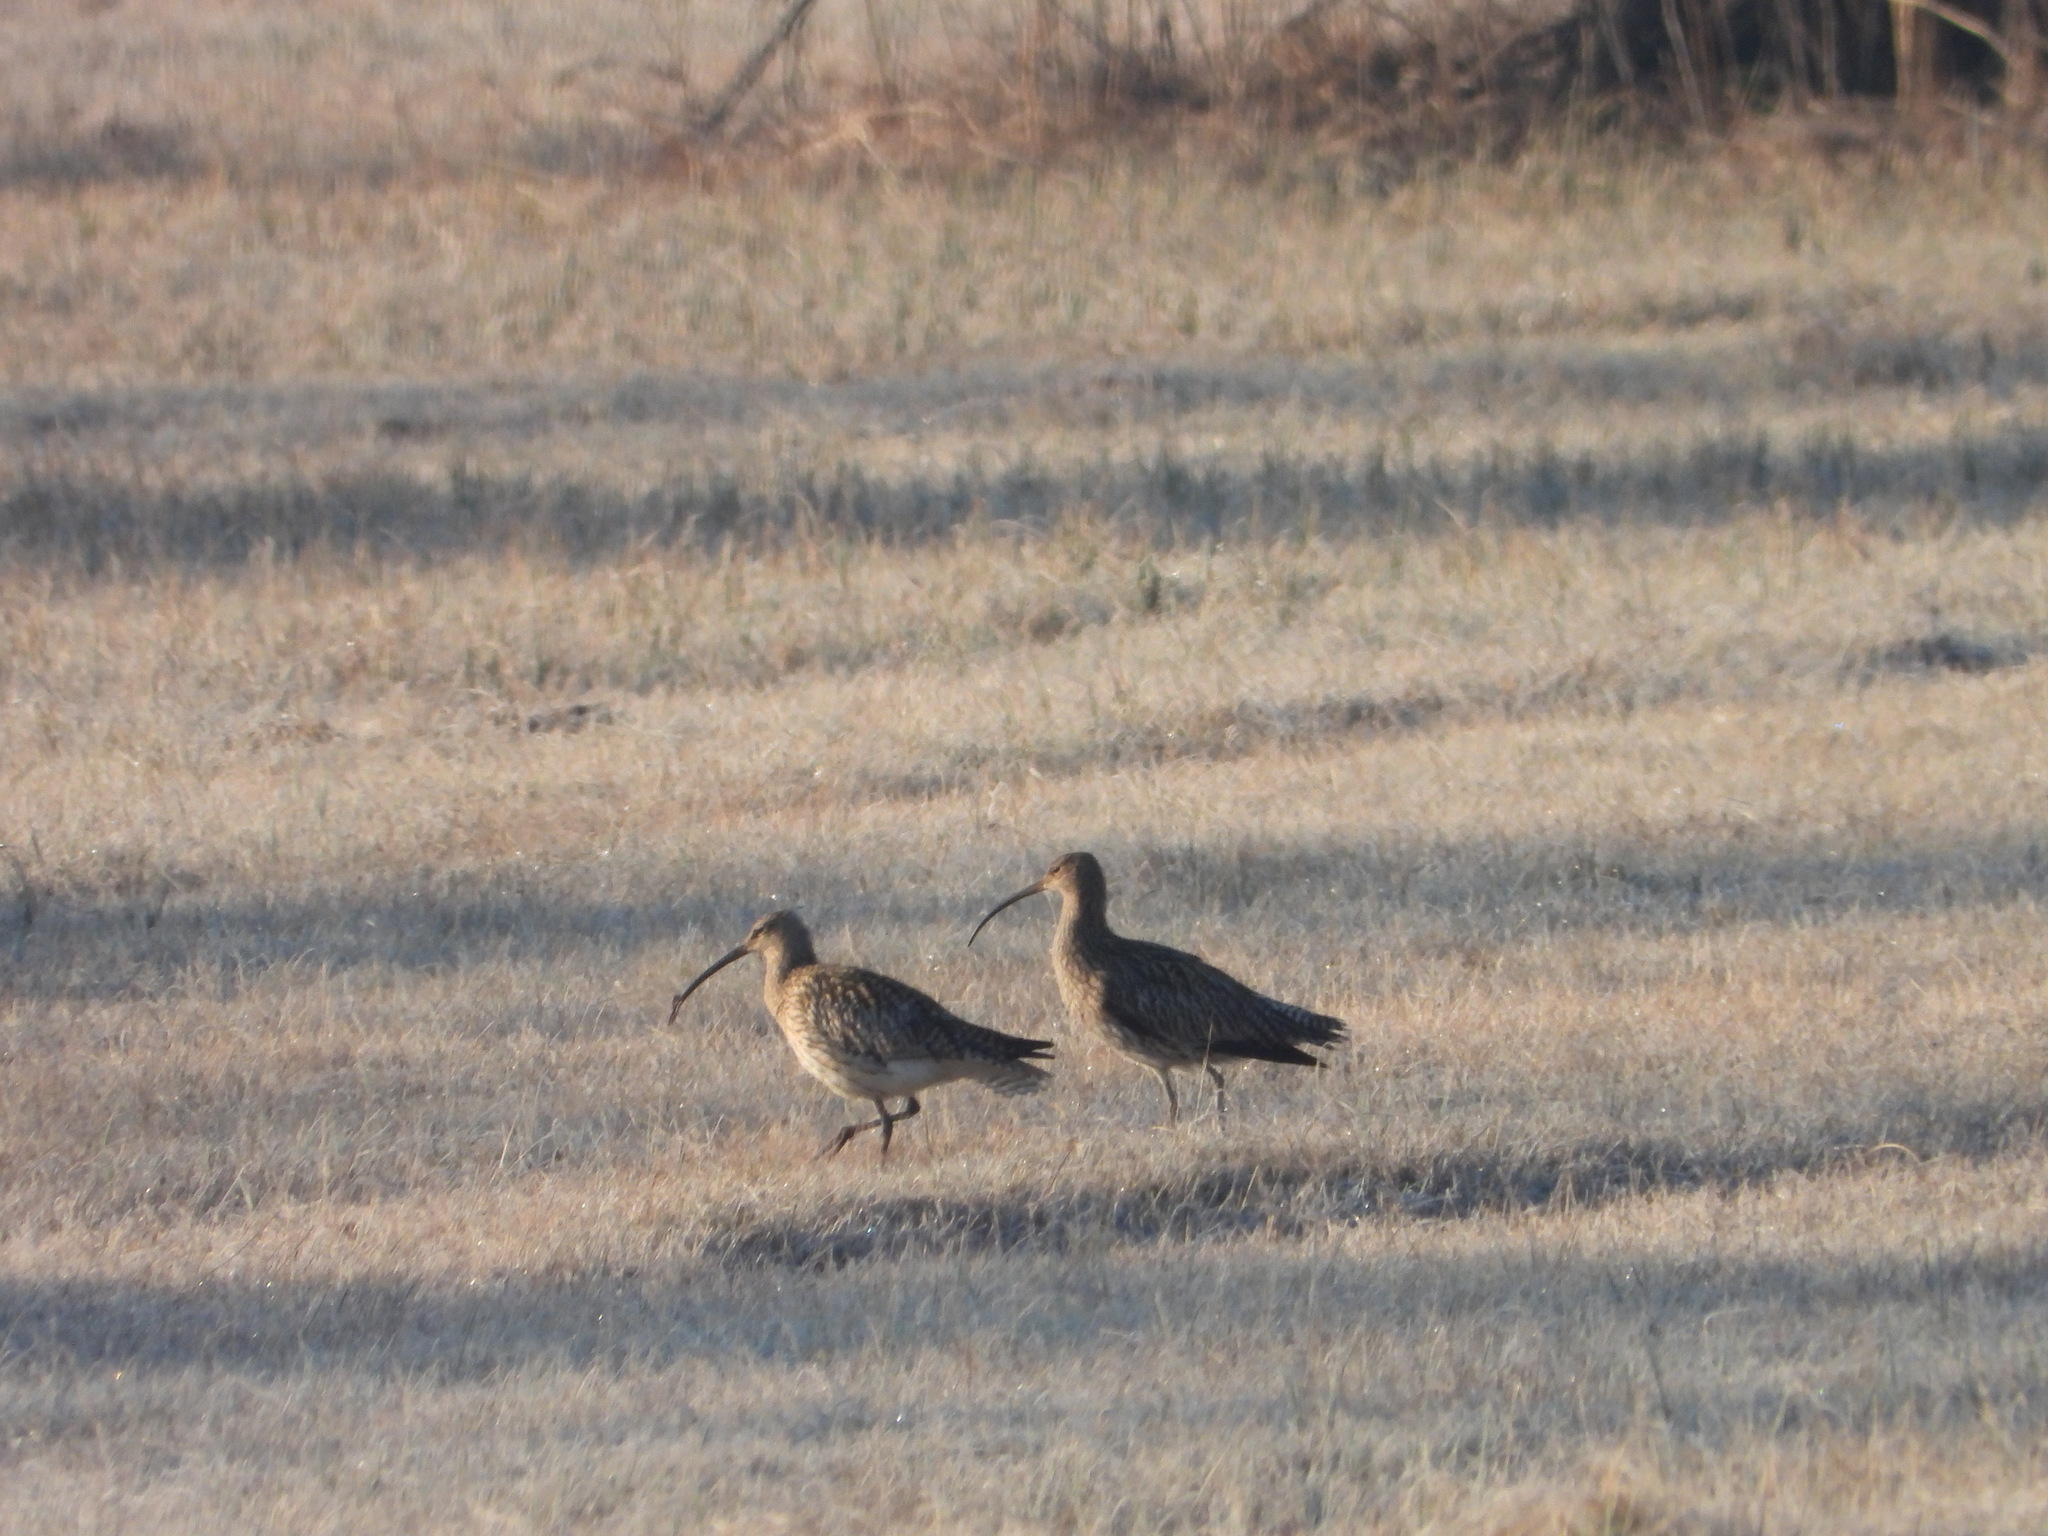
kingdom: Animalia
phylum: Chordata
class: Aves
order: Charadriiformes
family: Scolopacidae
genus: Numenius
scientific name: Numenius arquata
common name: Eurasian curlew
